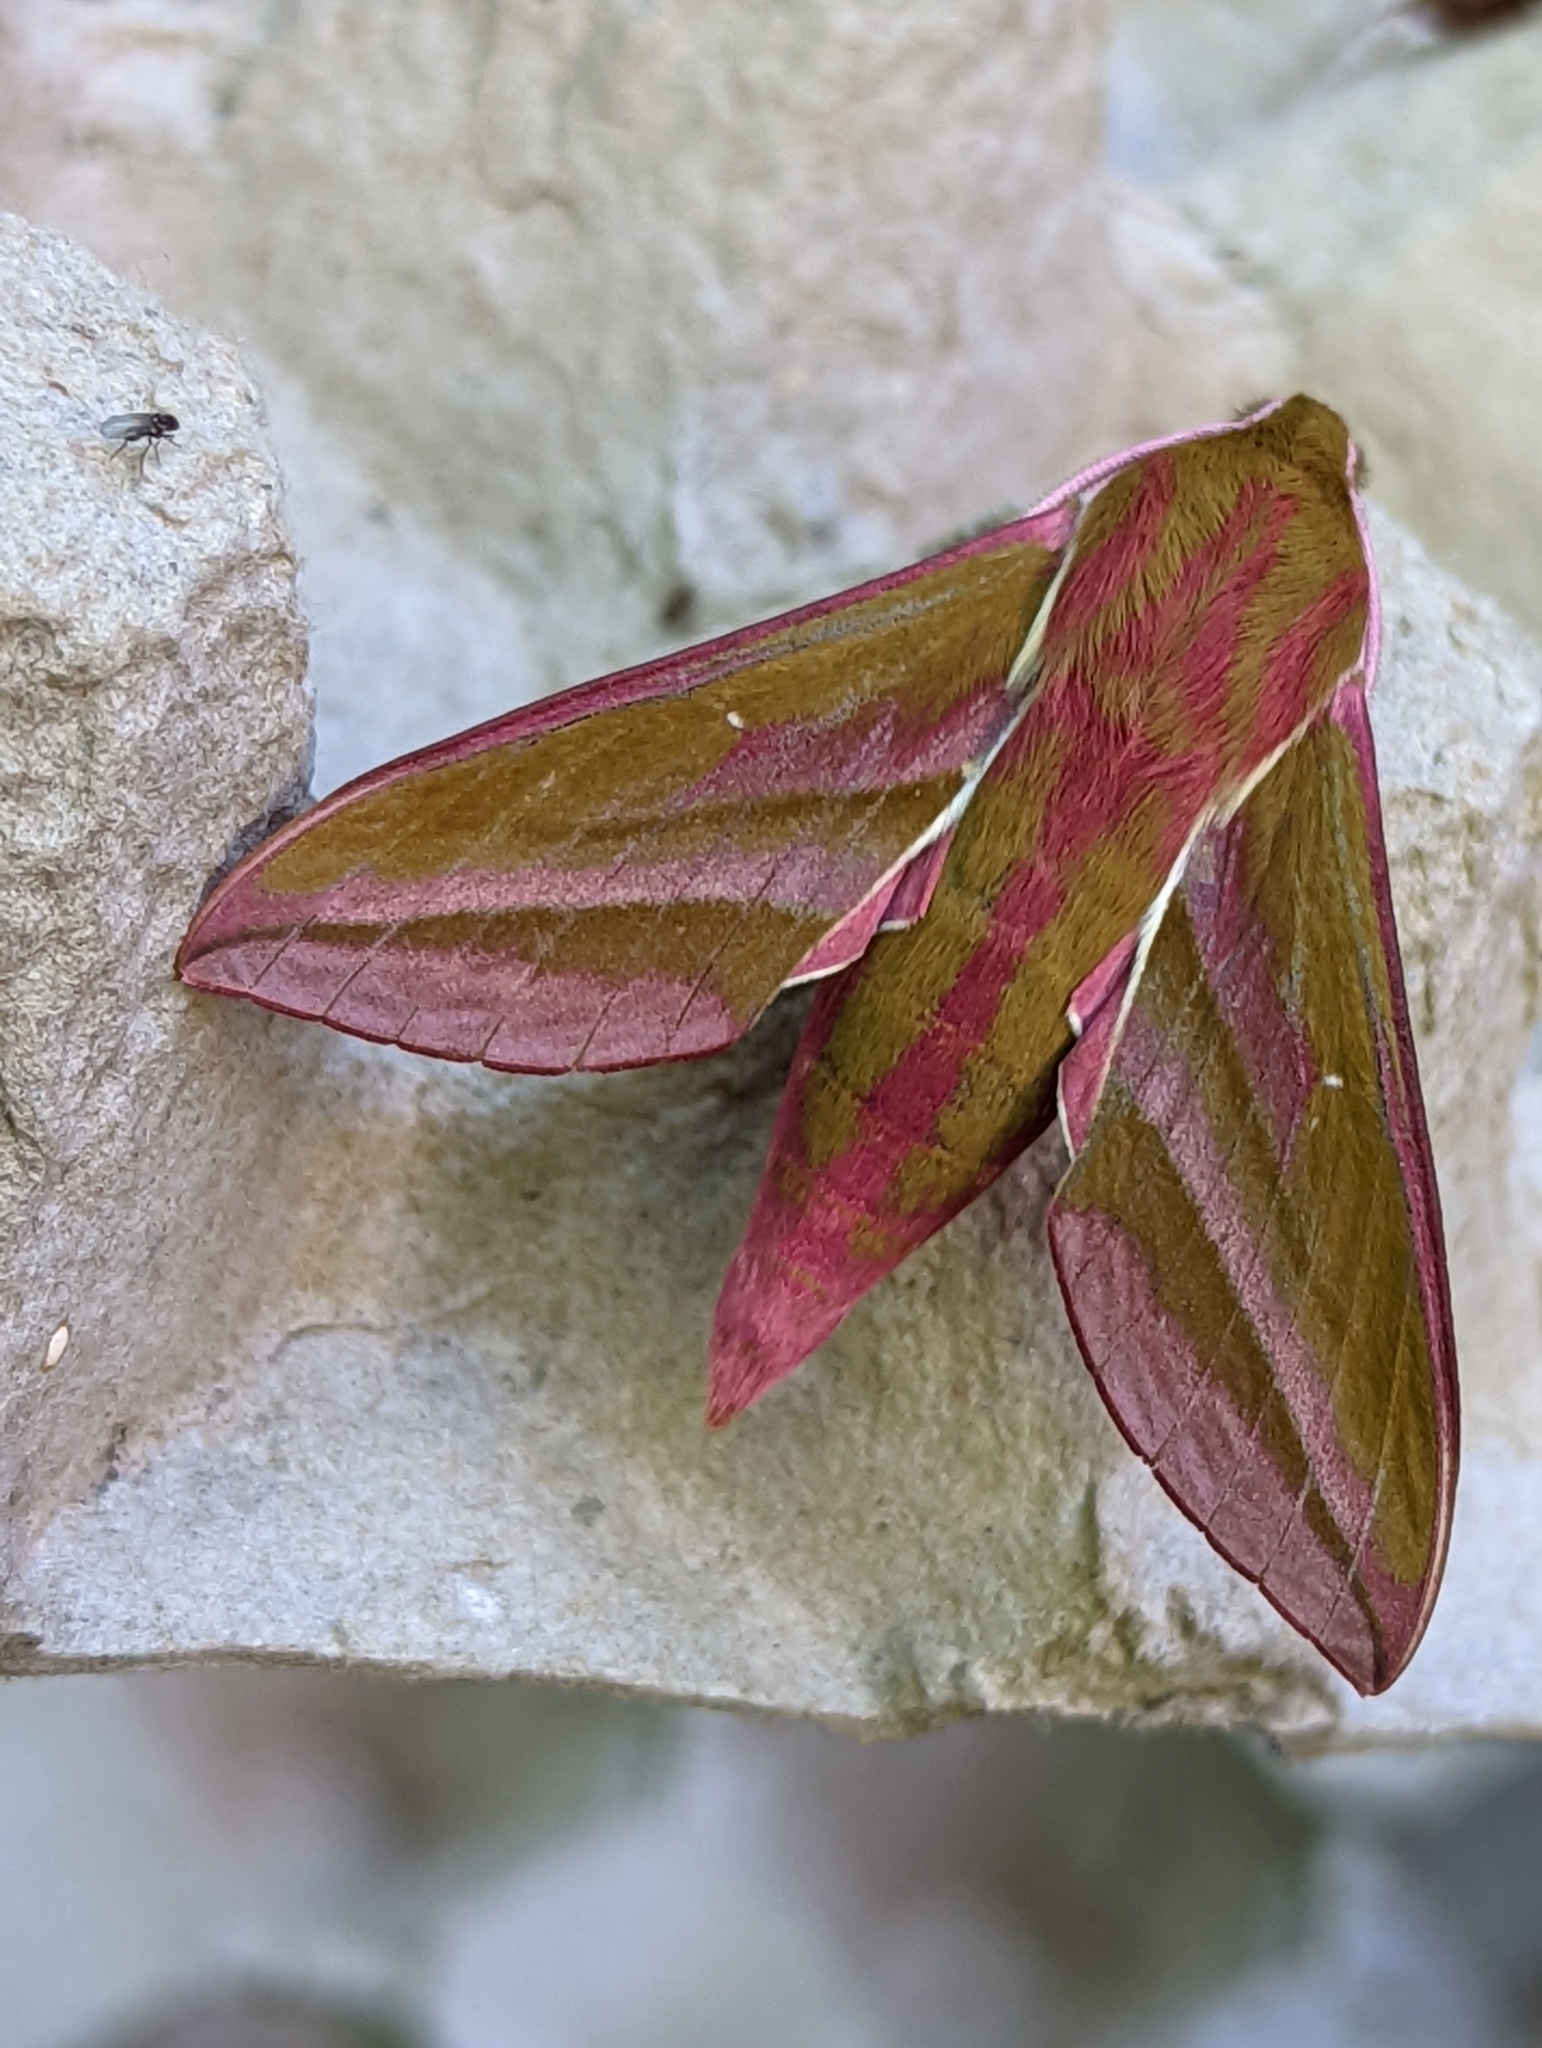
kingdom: Animalia
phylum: Arthropoda
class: Insecta
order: Lepidoptera
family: Sphingidae
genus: Deilephila
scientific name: Deilephila elpenor
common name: Elephant hawk-moth
